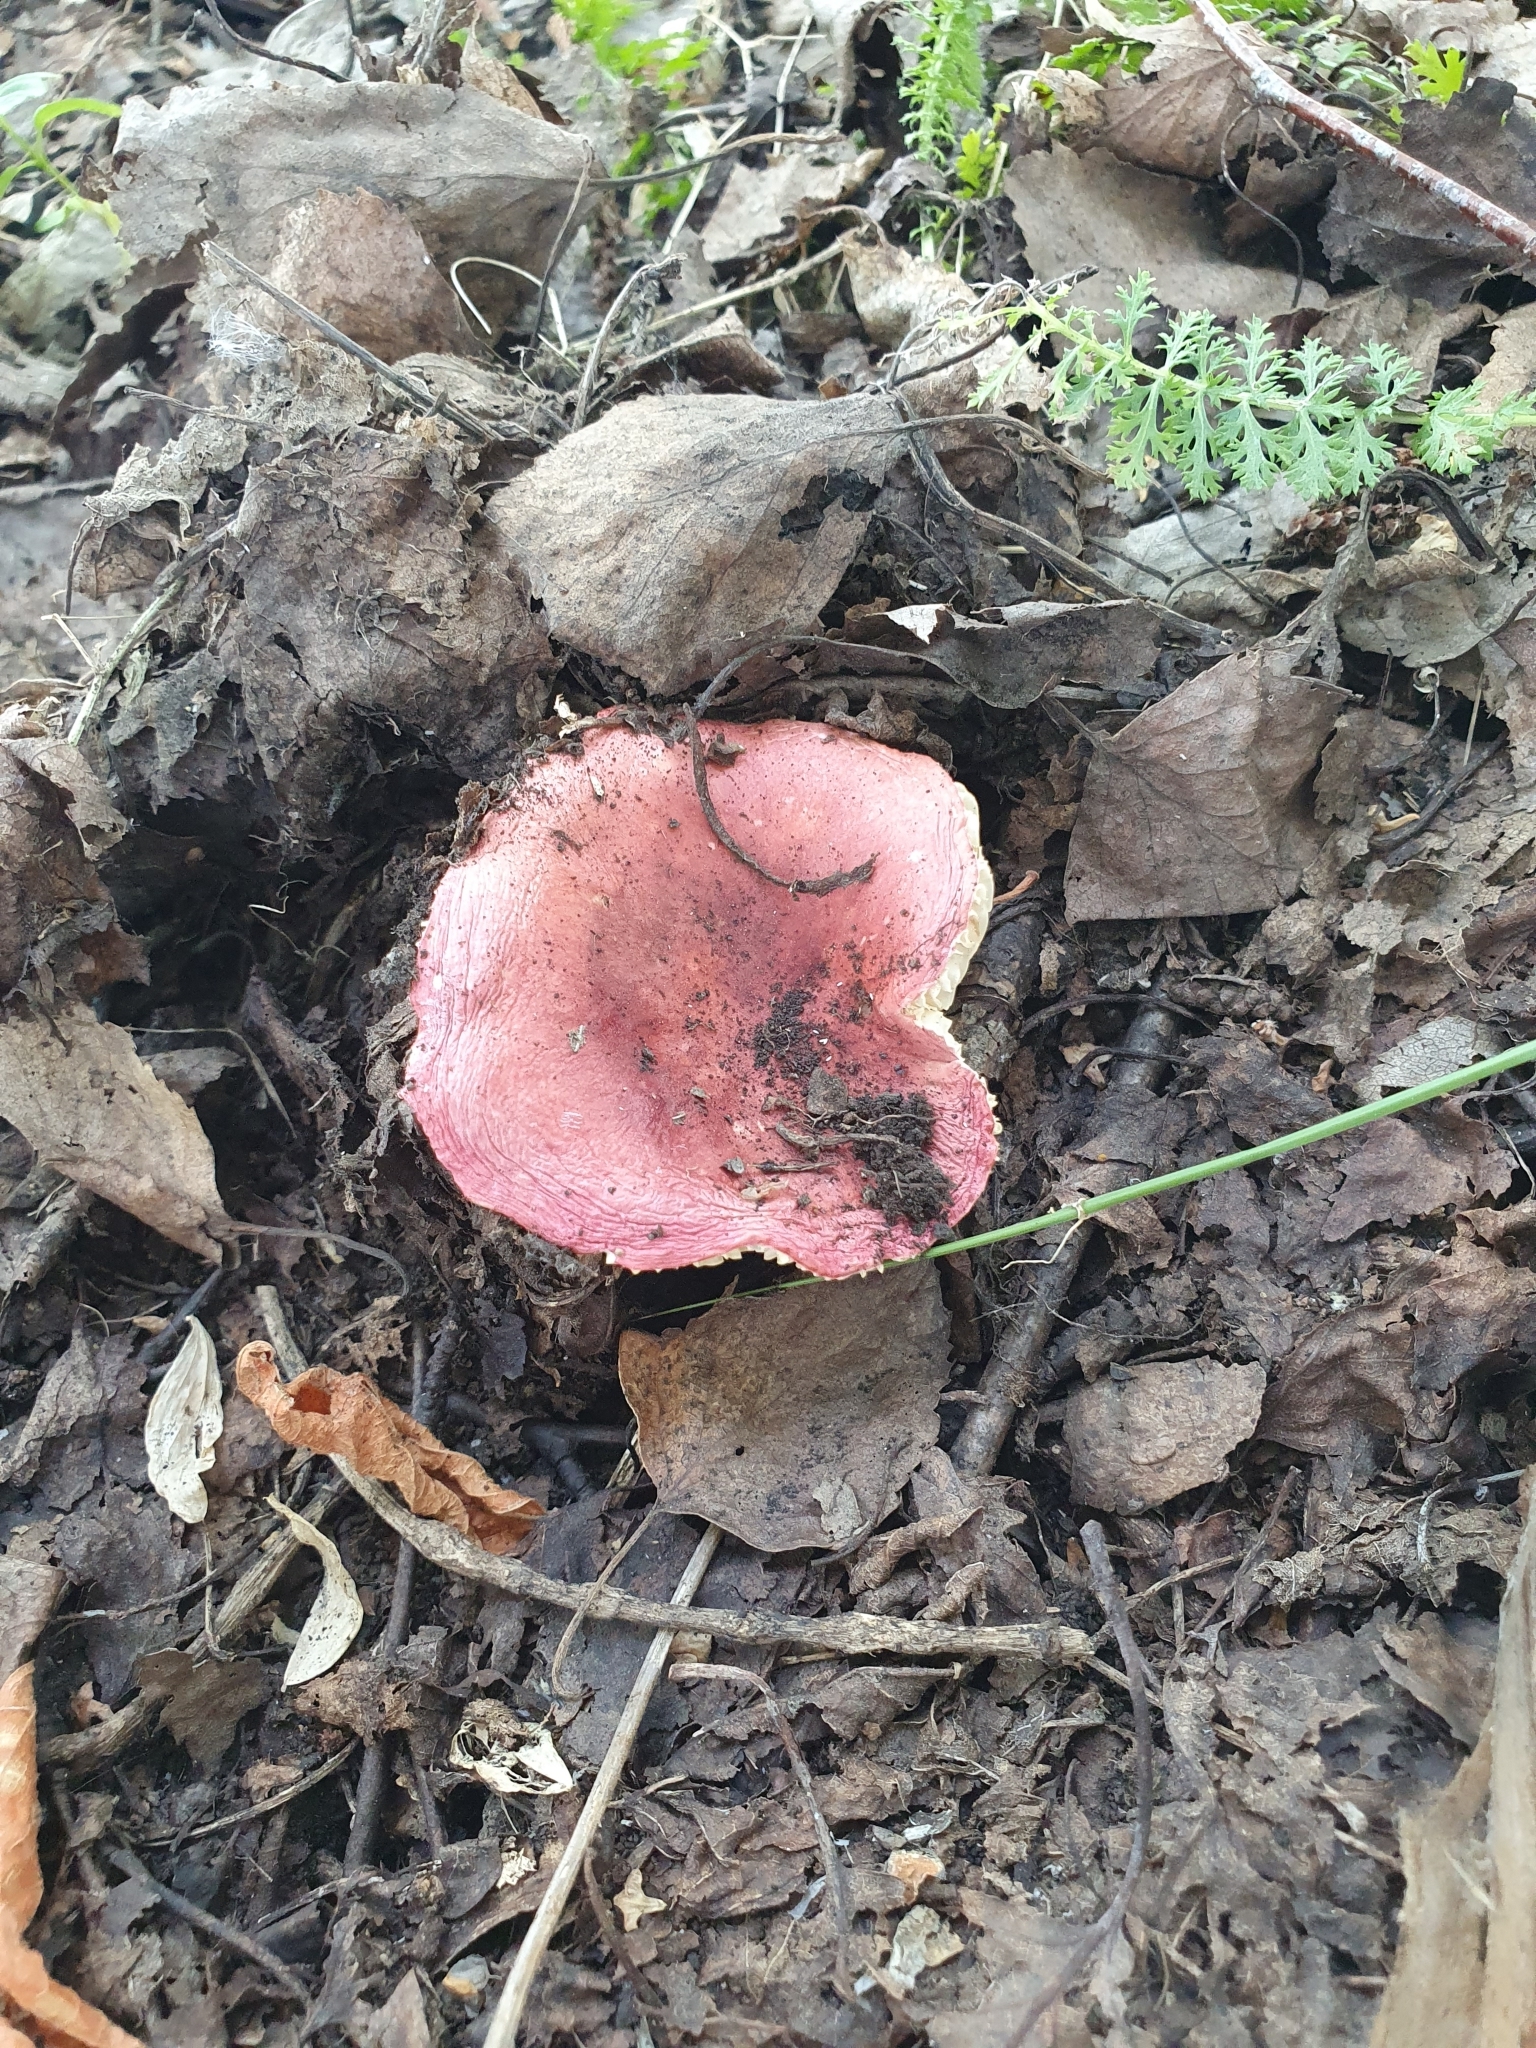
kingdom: Fungi
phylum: Basidiomycota
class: Agaricomycetes
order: Russulales
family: Russulaceae
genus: Russula
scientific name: Russula sanguinea
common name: Bloody brittlegill
